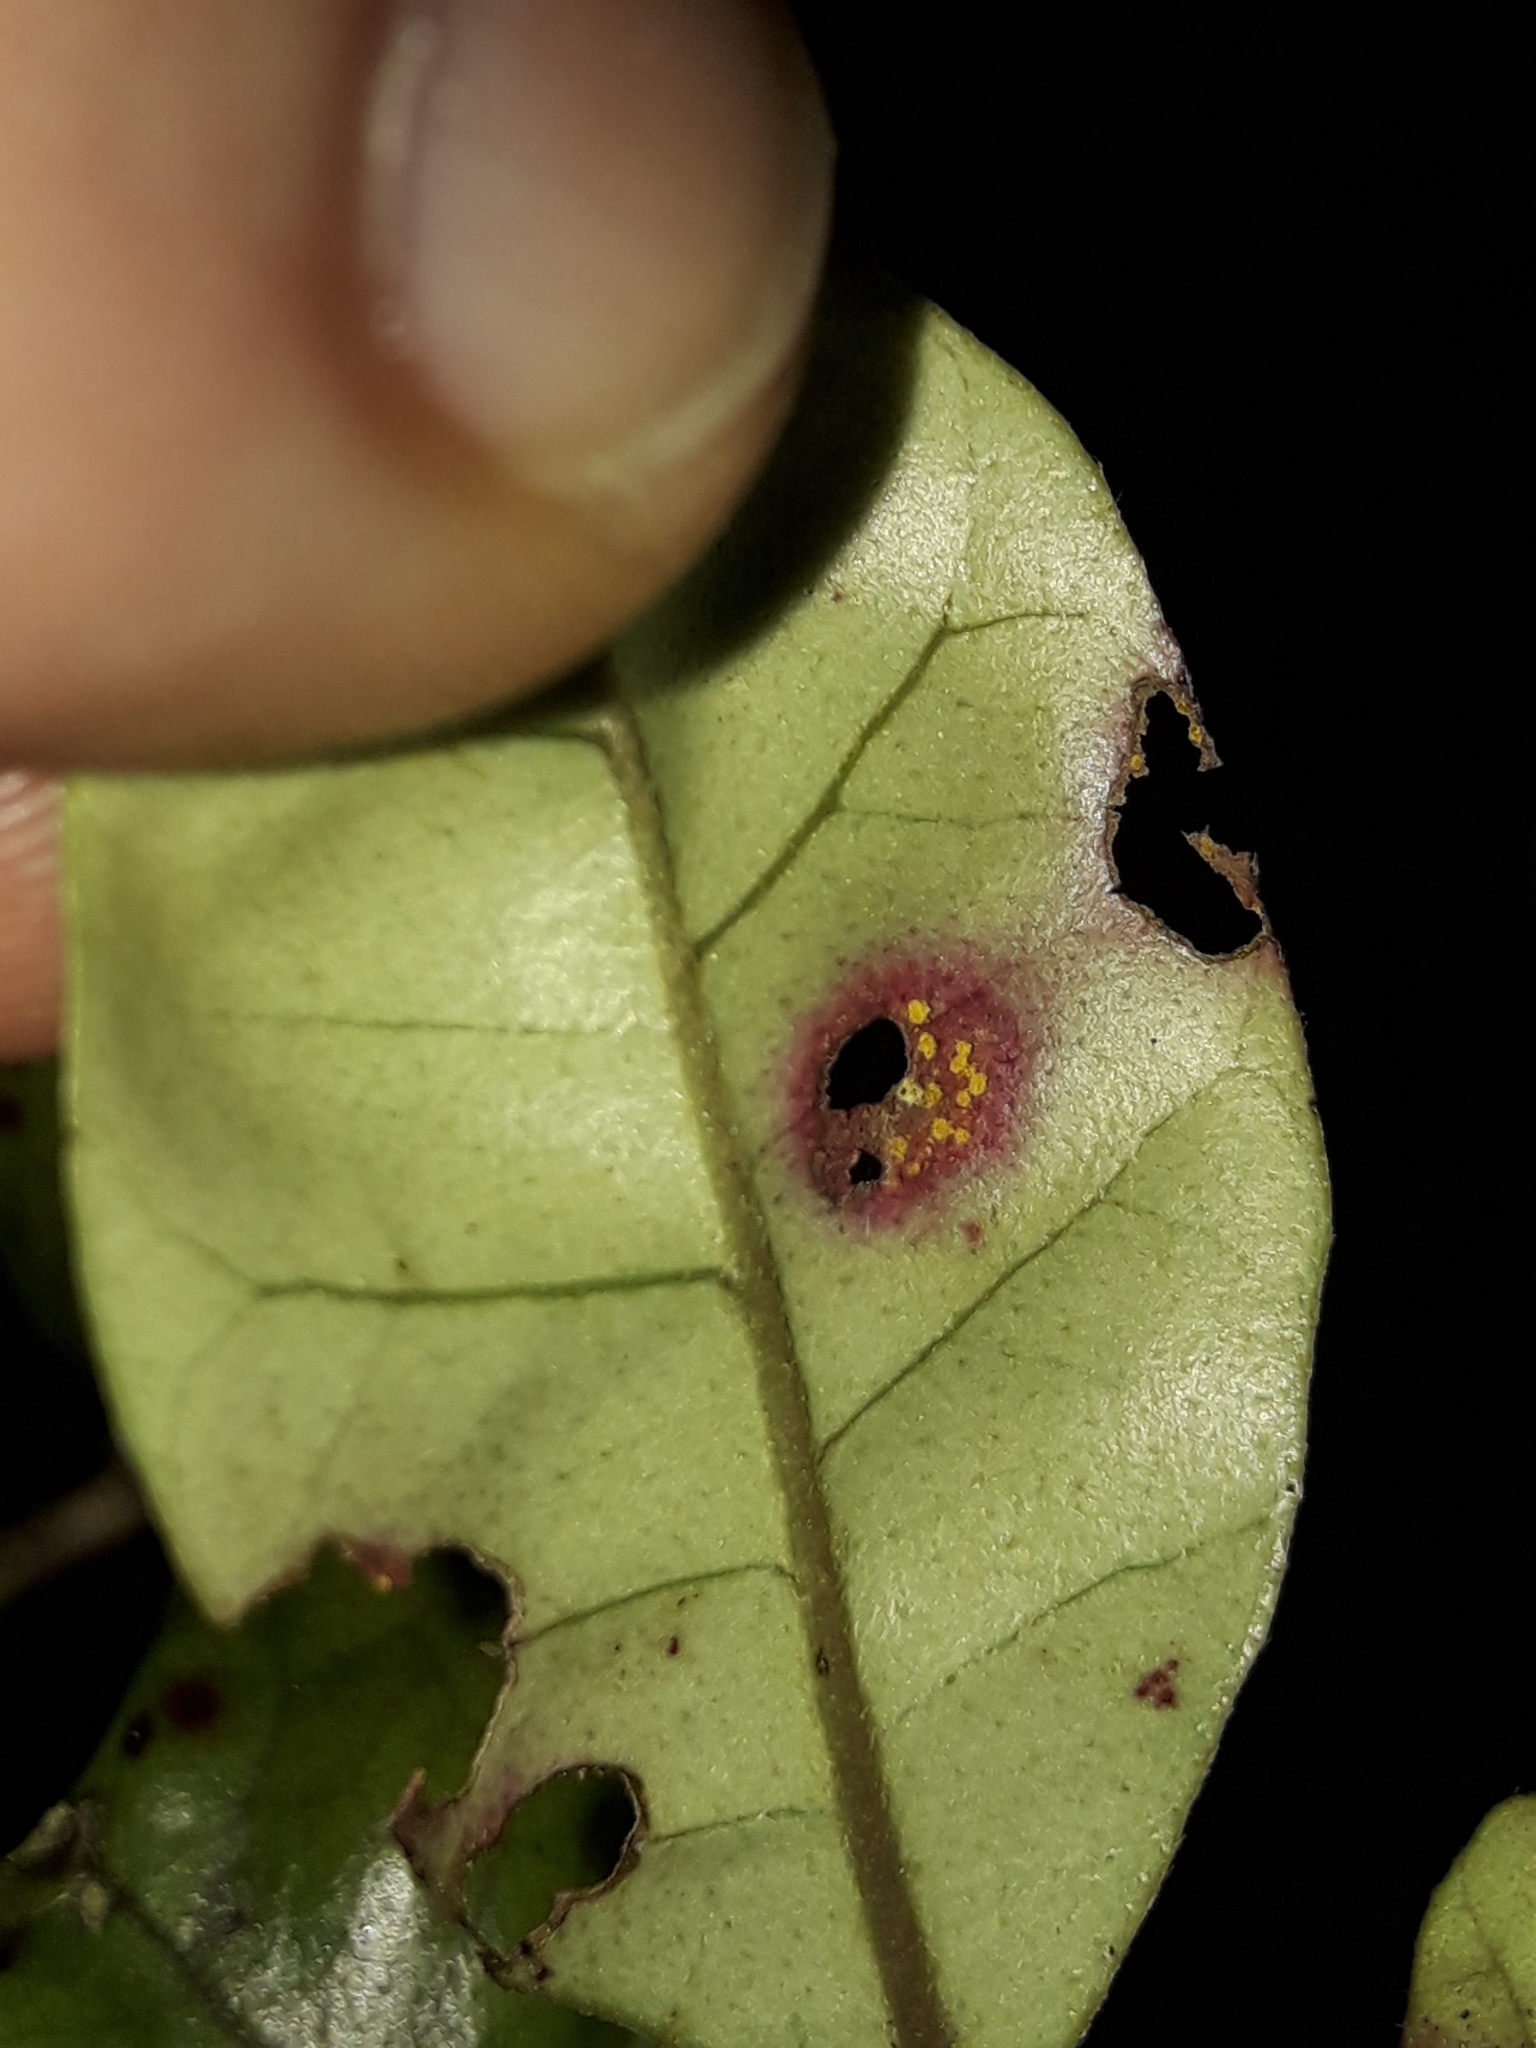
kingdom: Fungi
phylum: Basidiomycota
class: Pucciniomycetes
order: Pucciniales
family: Sphaerophragmiaceae
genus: Austropuccinia
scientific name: Austropuccinia psidii
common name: Myrtle rust
